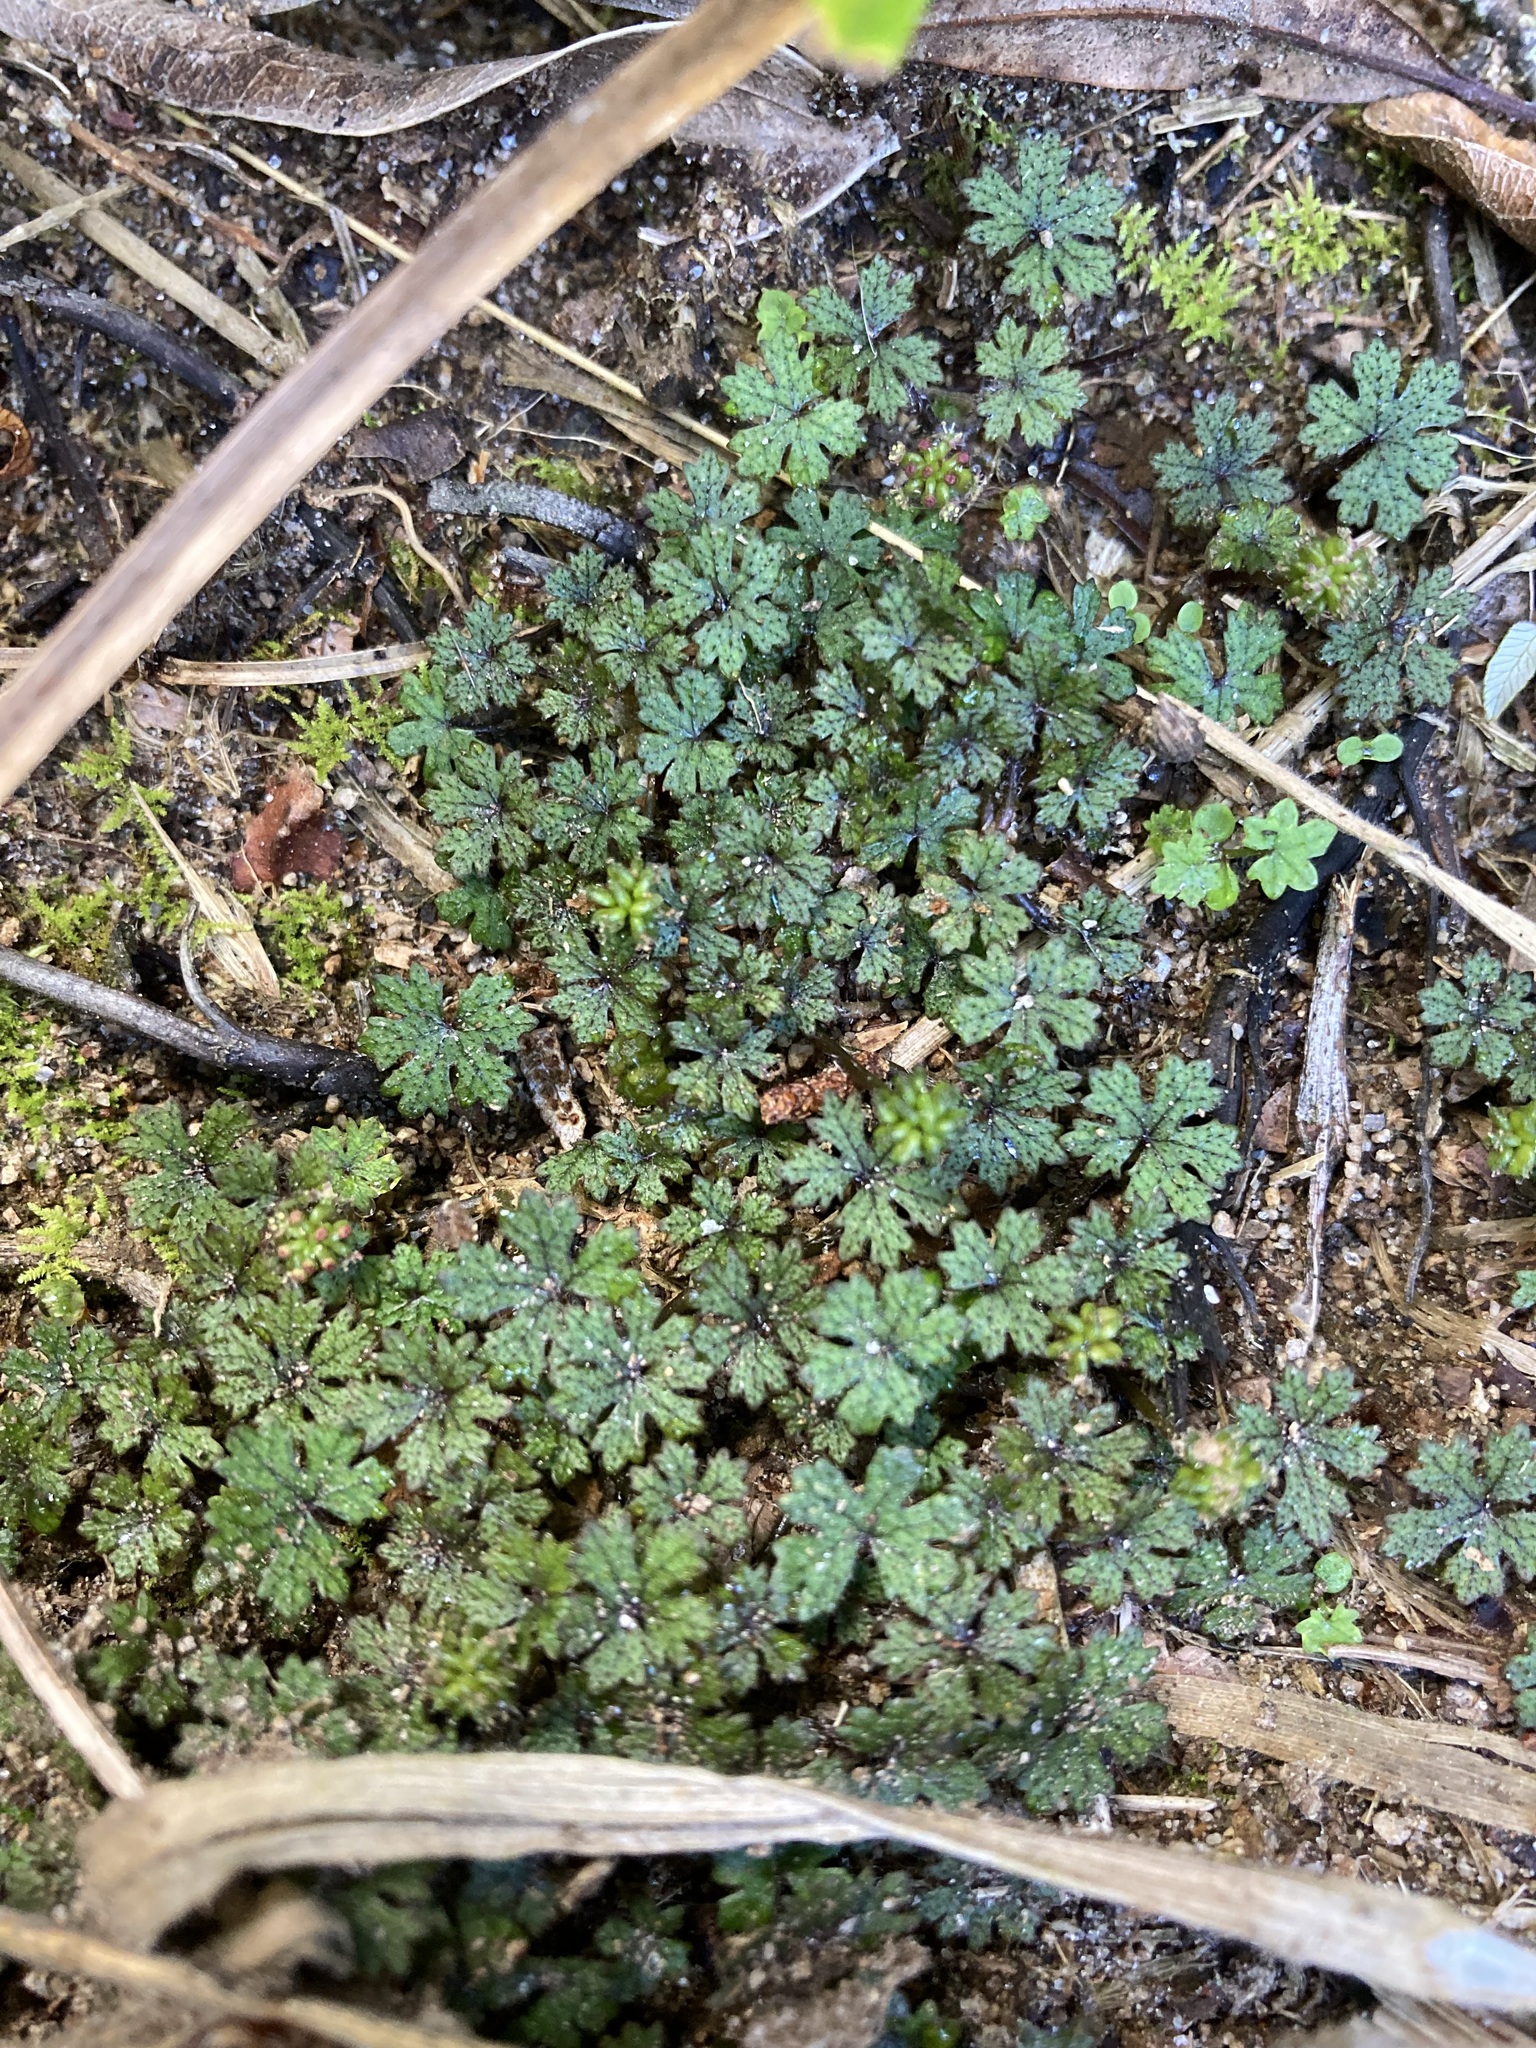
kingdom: Plantae
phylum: Tracheophyta
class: Magnoliopsida
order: Apiales
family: Araliaceae
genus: Hydrocotyle
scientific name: Hydrocotyle dissecta
